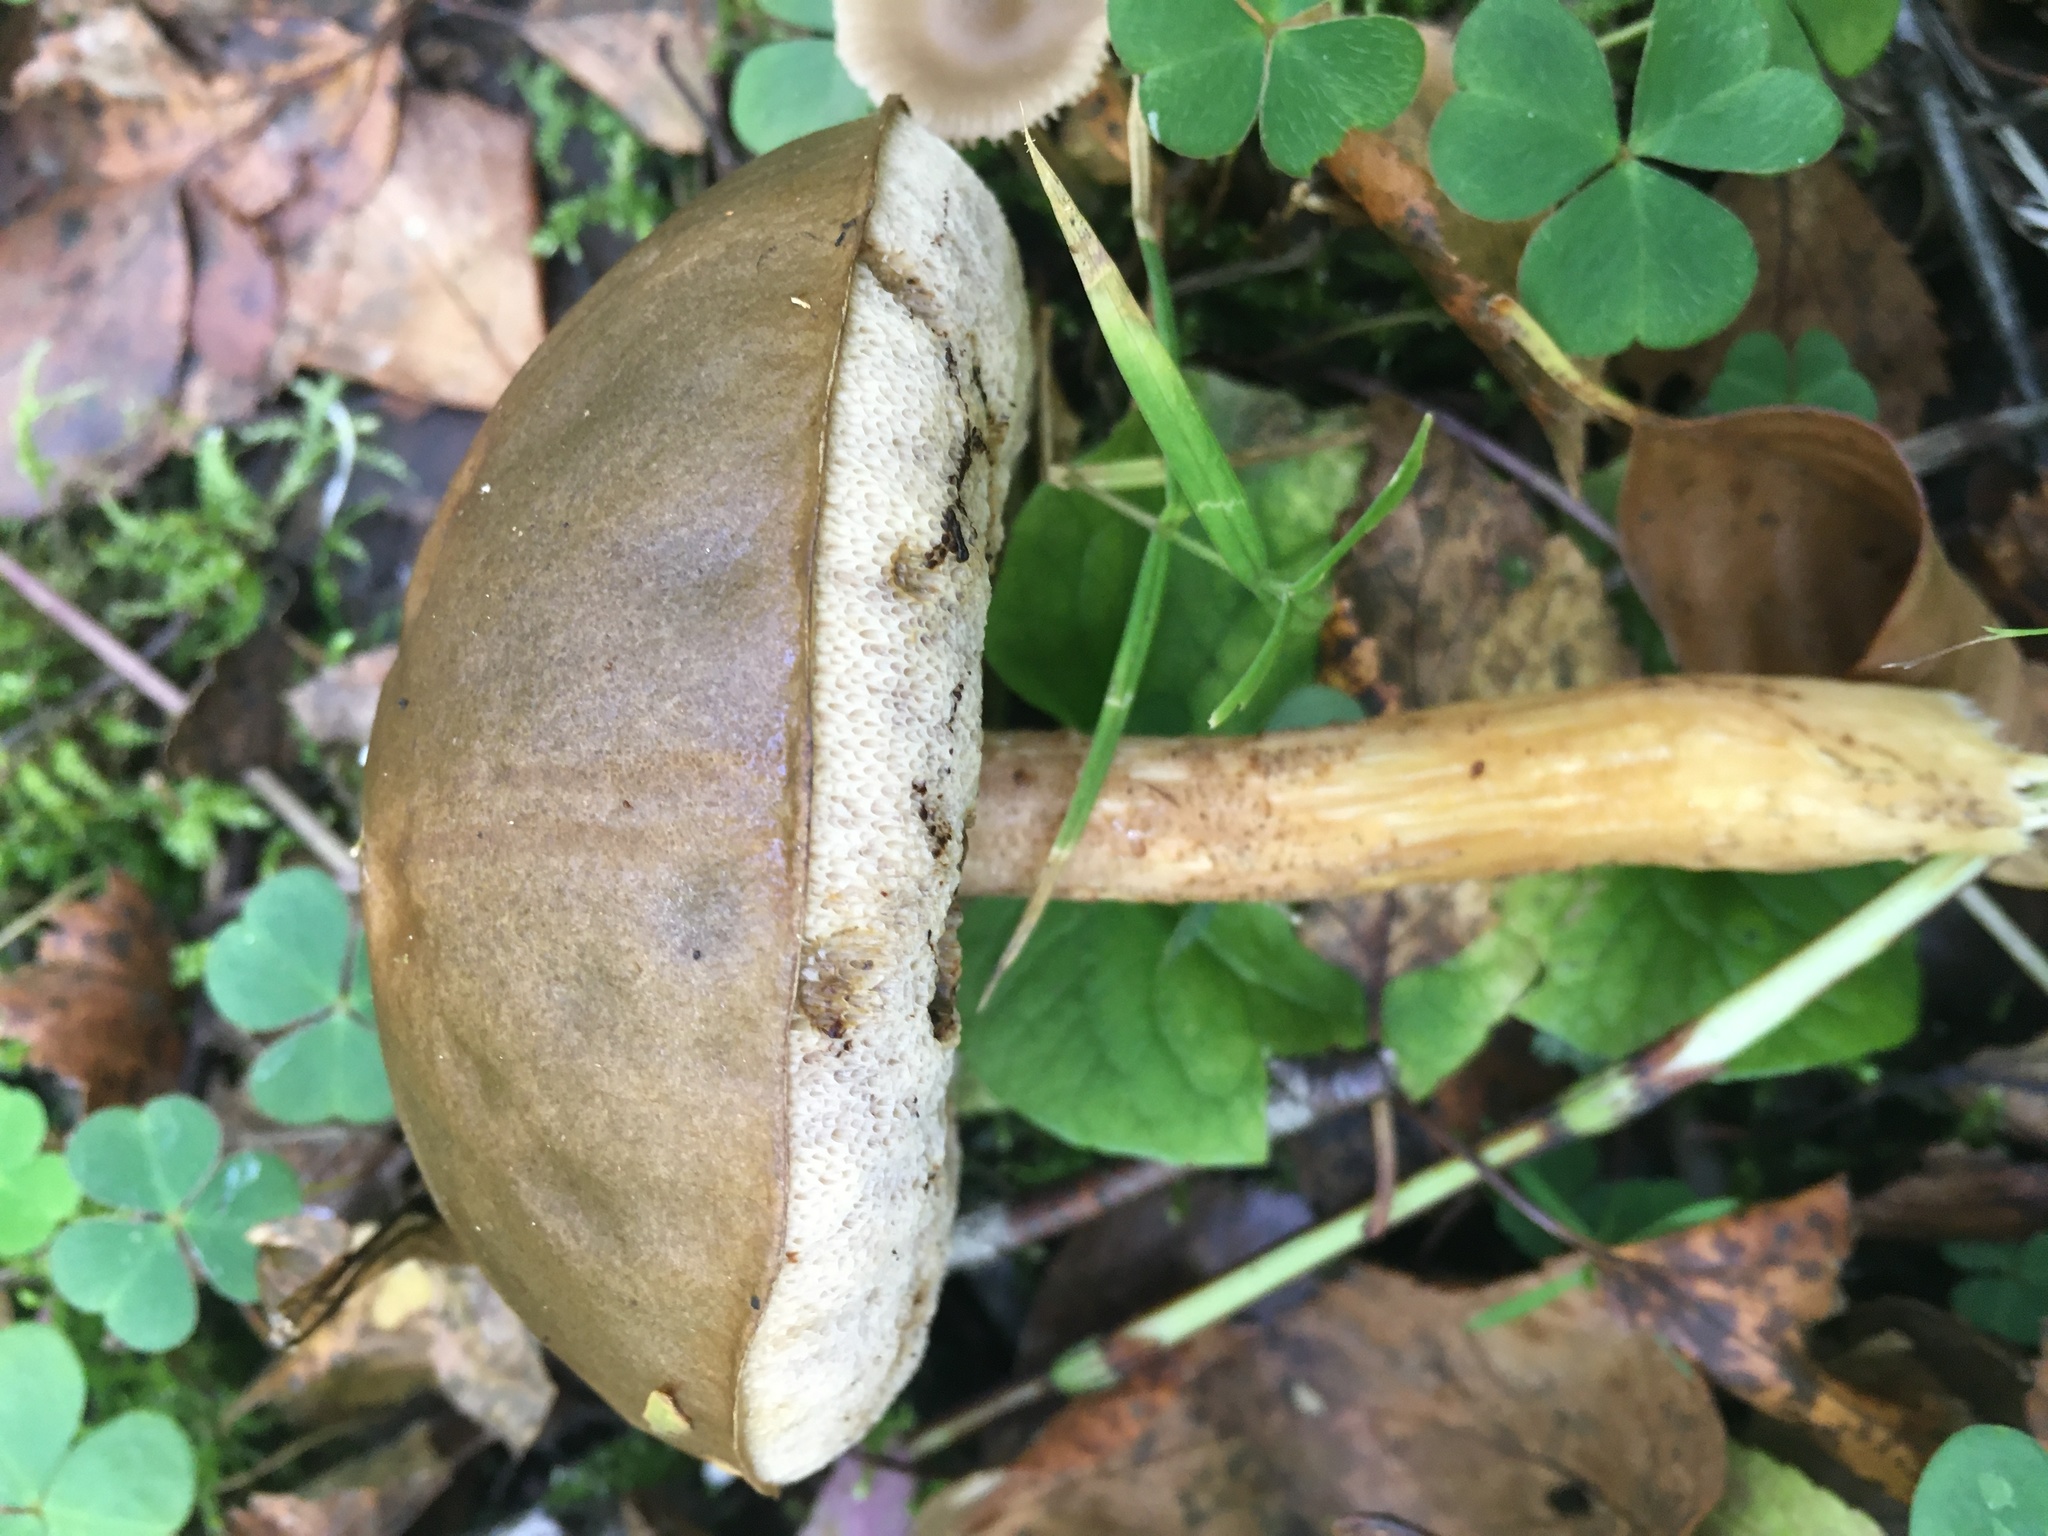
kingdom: Fungi
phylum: Basidiomycota
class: Agaricomycetes
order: Boletales
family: Boletaceae
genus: Leccinum
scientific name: Leccinum scabrum
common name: Blushing bolete
